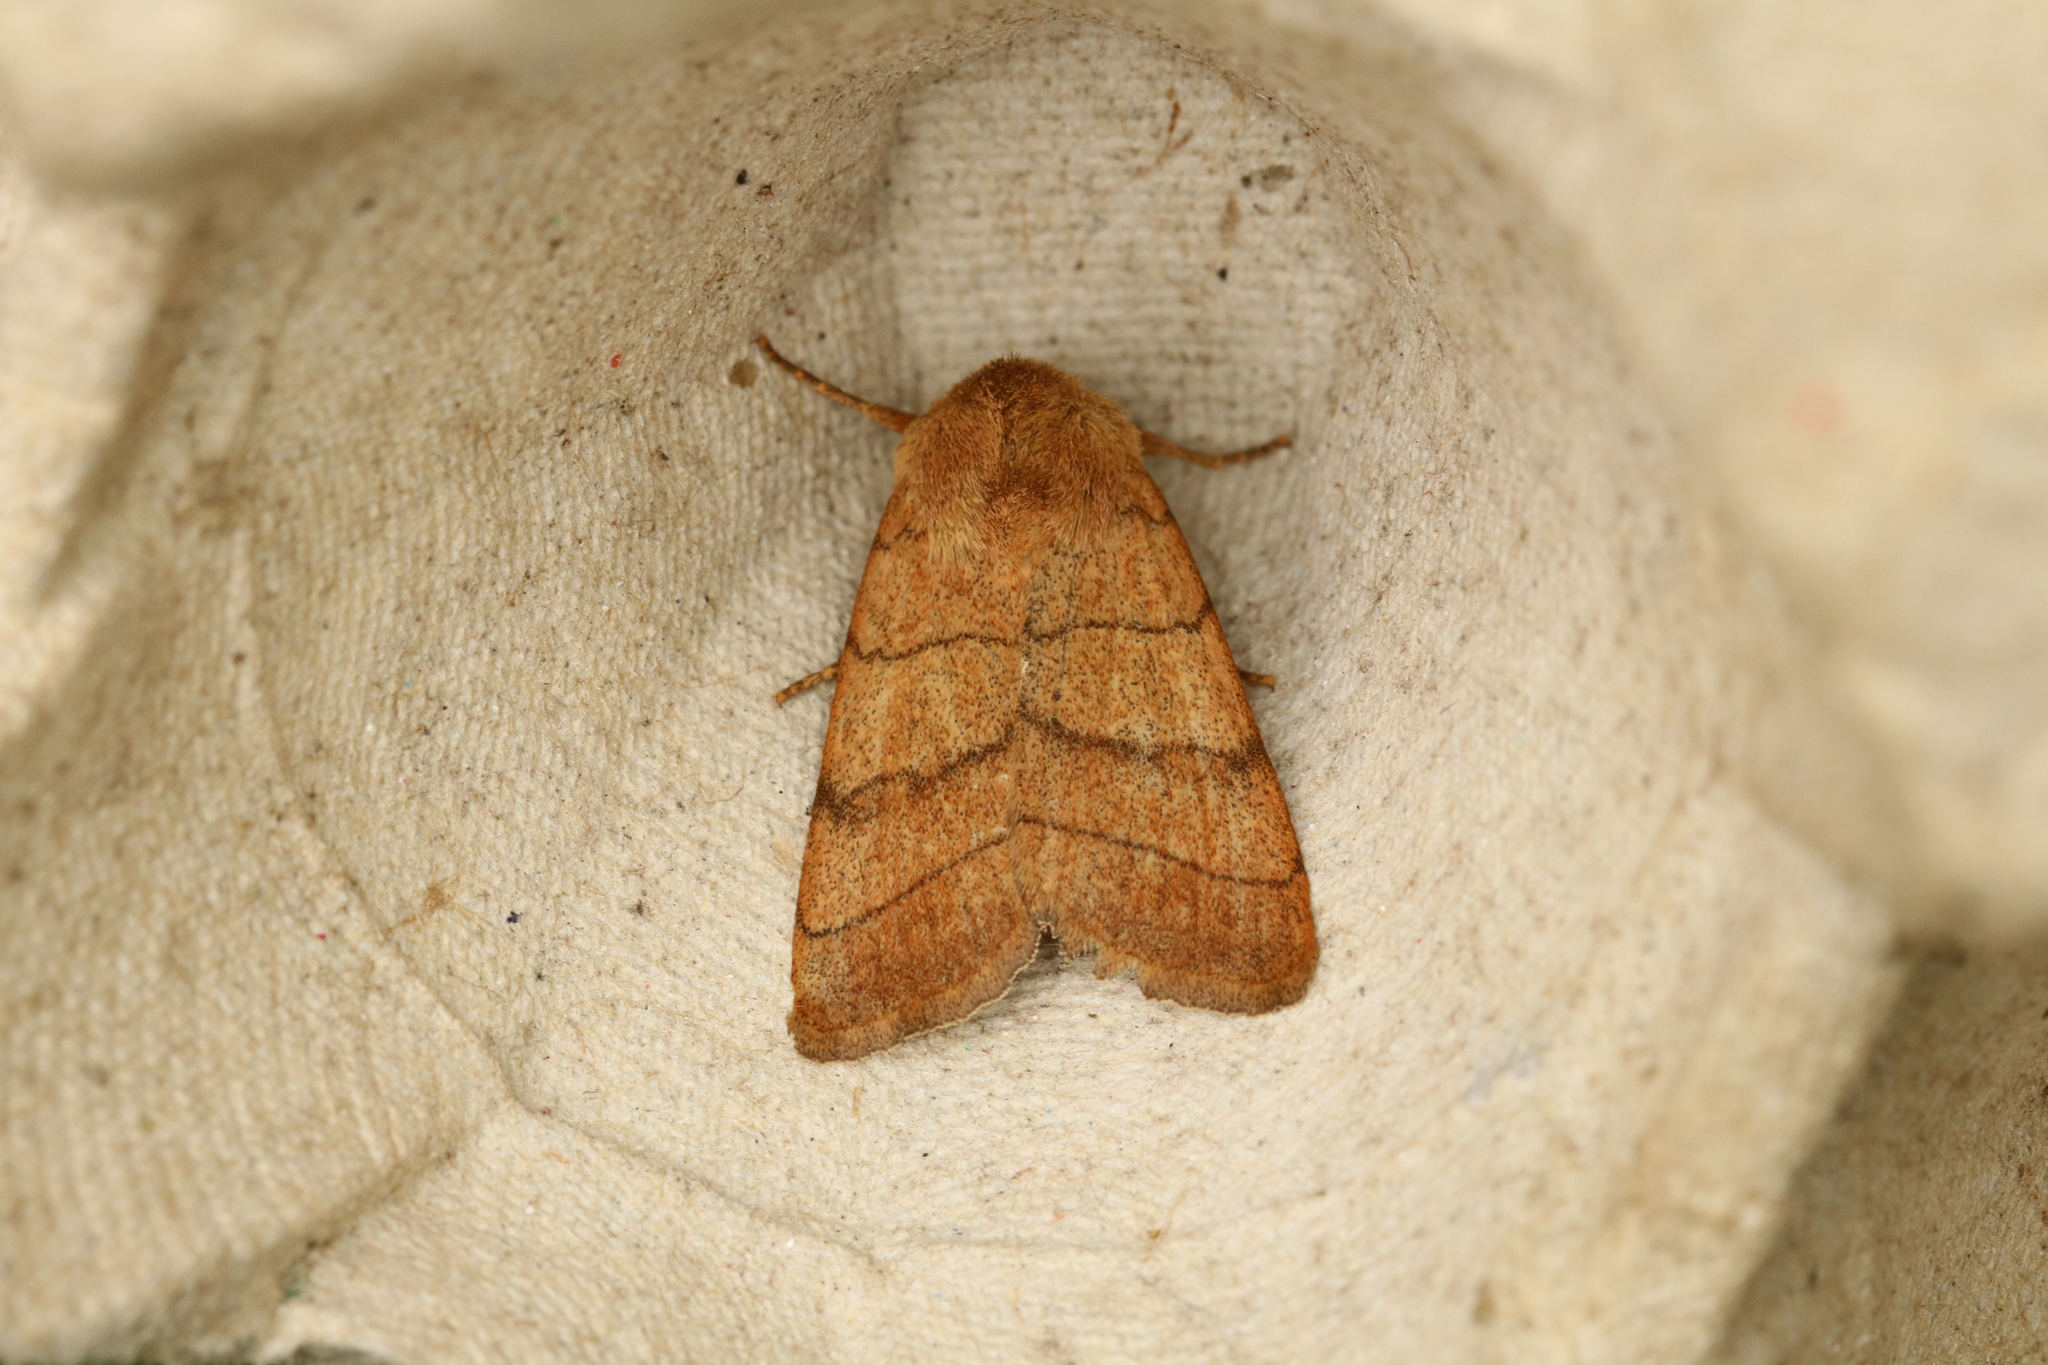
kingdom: Animalia
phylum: Arthropoda
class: Insecta
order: Lepidoptera
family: Noctuidae
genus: Charanyca
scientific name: Charanyca trigrammica
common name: Treble lines
